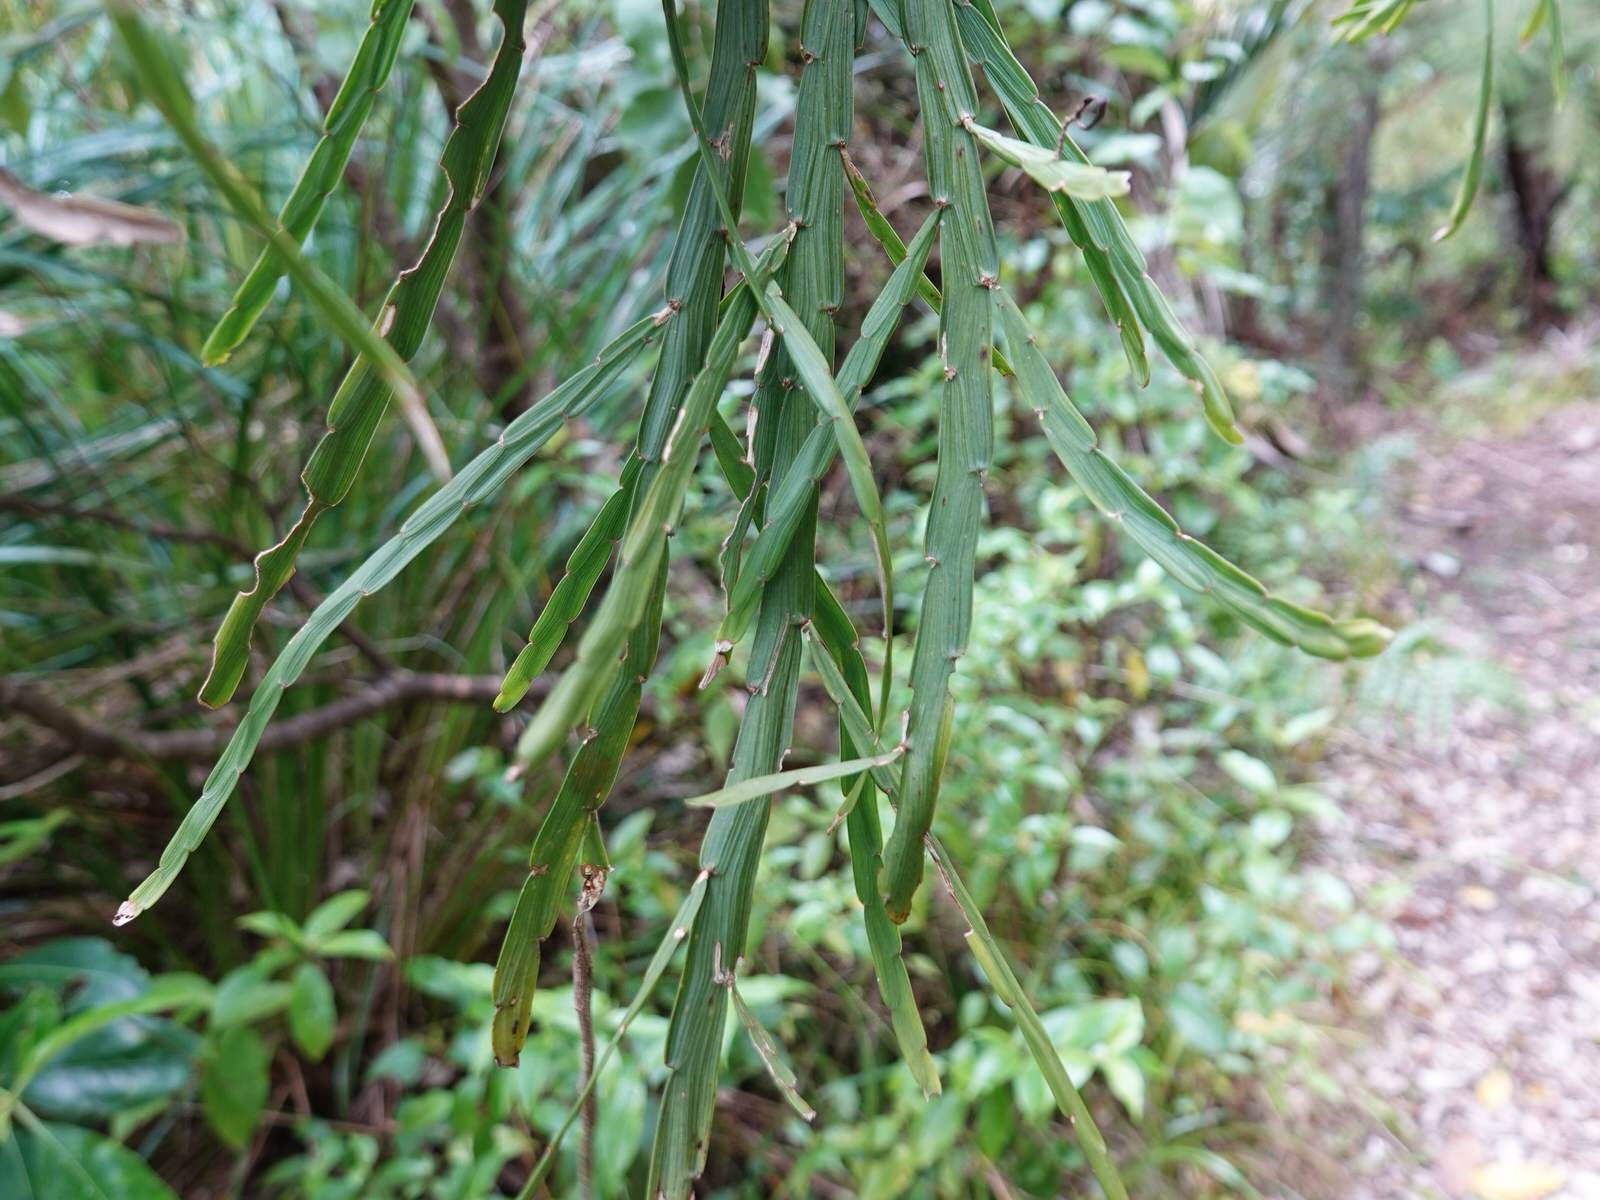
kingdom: Plantae
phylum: Tracheophyta
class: Magnoliopsida
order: Fabales
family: Fabaceae
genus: Carmichaelia
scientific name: Carmichaelia australis
